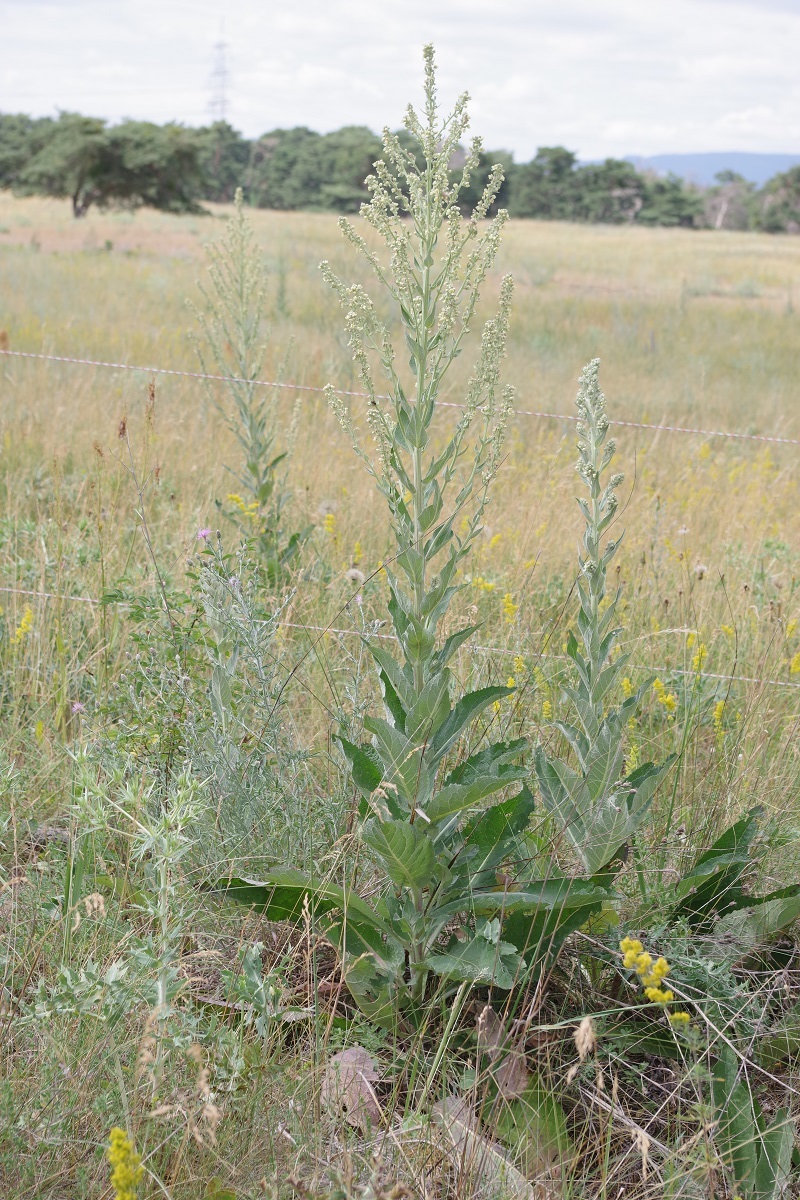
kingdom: Plantae
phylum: Tracheophyta
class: Magnoliopsida
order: Lamiales
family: Scrophulariaceae
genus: Verbascum
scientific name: Verbascum lychnitis
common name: White mullein
